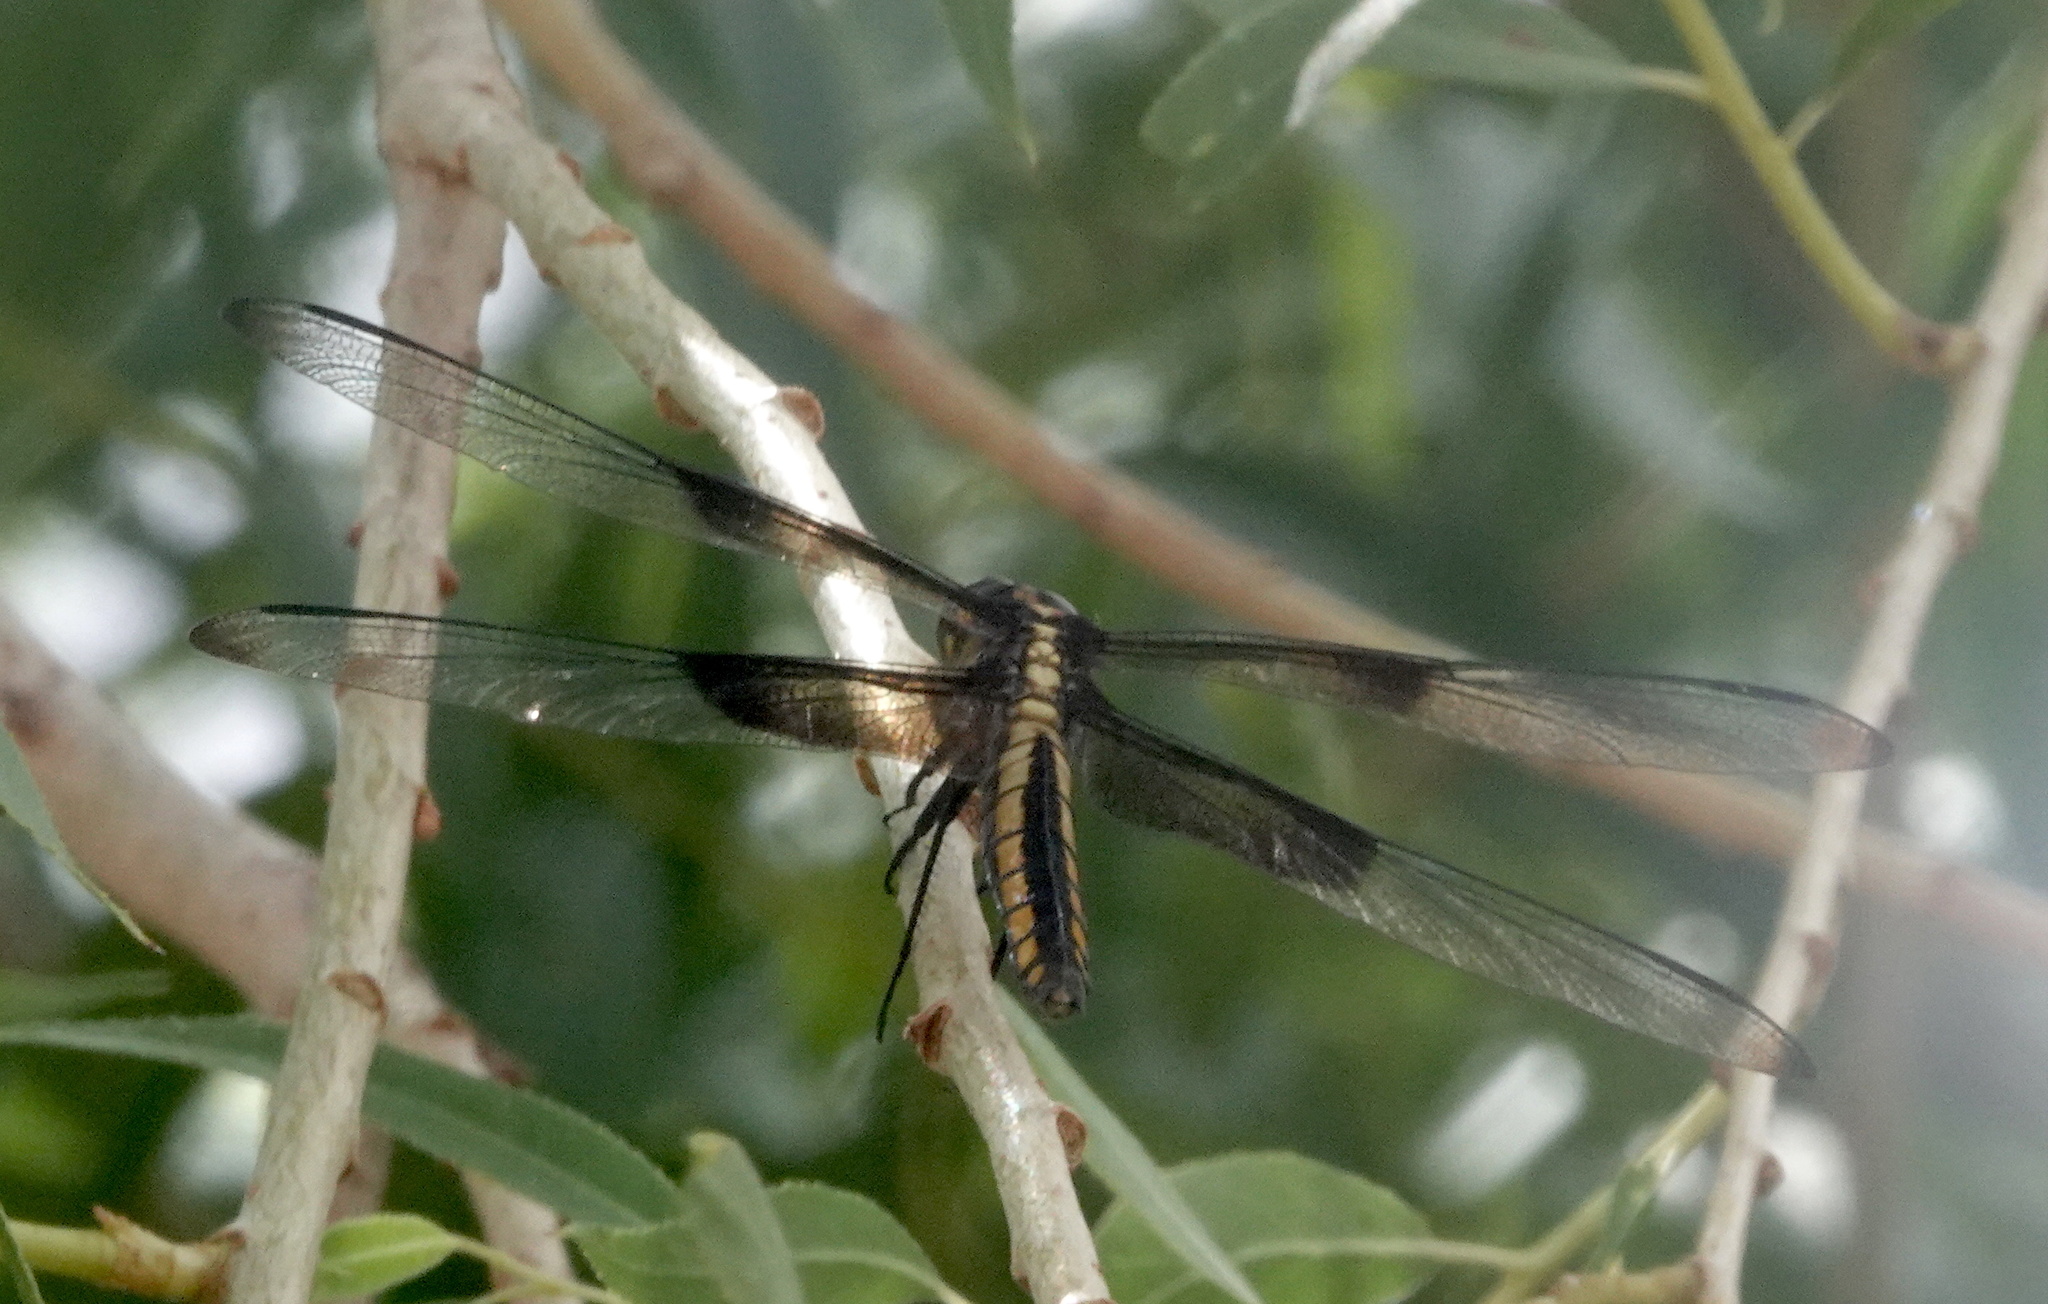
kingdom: Animalia
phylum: Arthropoda
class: Insecta
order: Odonata
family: Libellulidae
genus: Libellula
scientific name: Libellula luctuosa
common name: Widow skimmer
